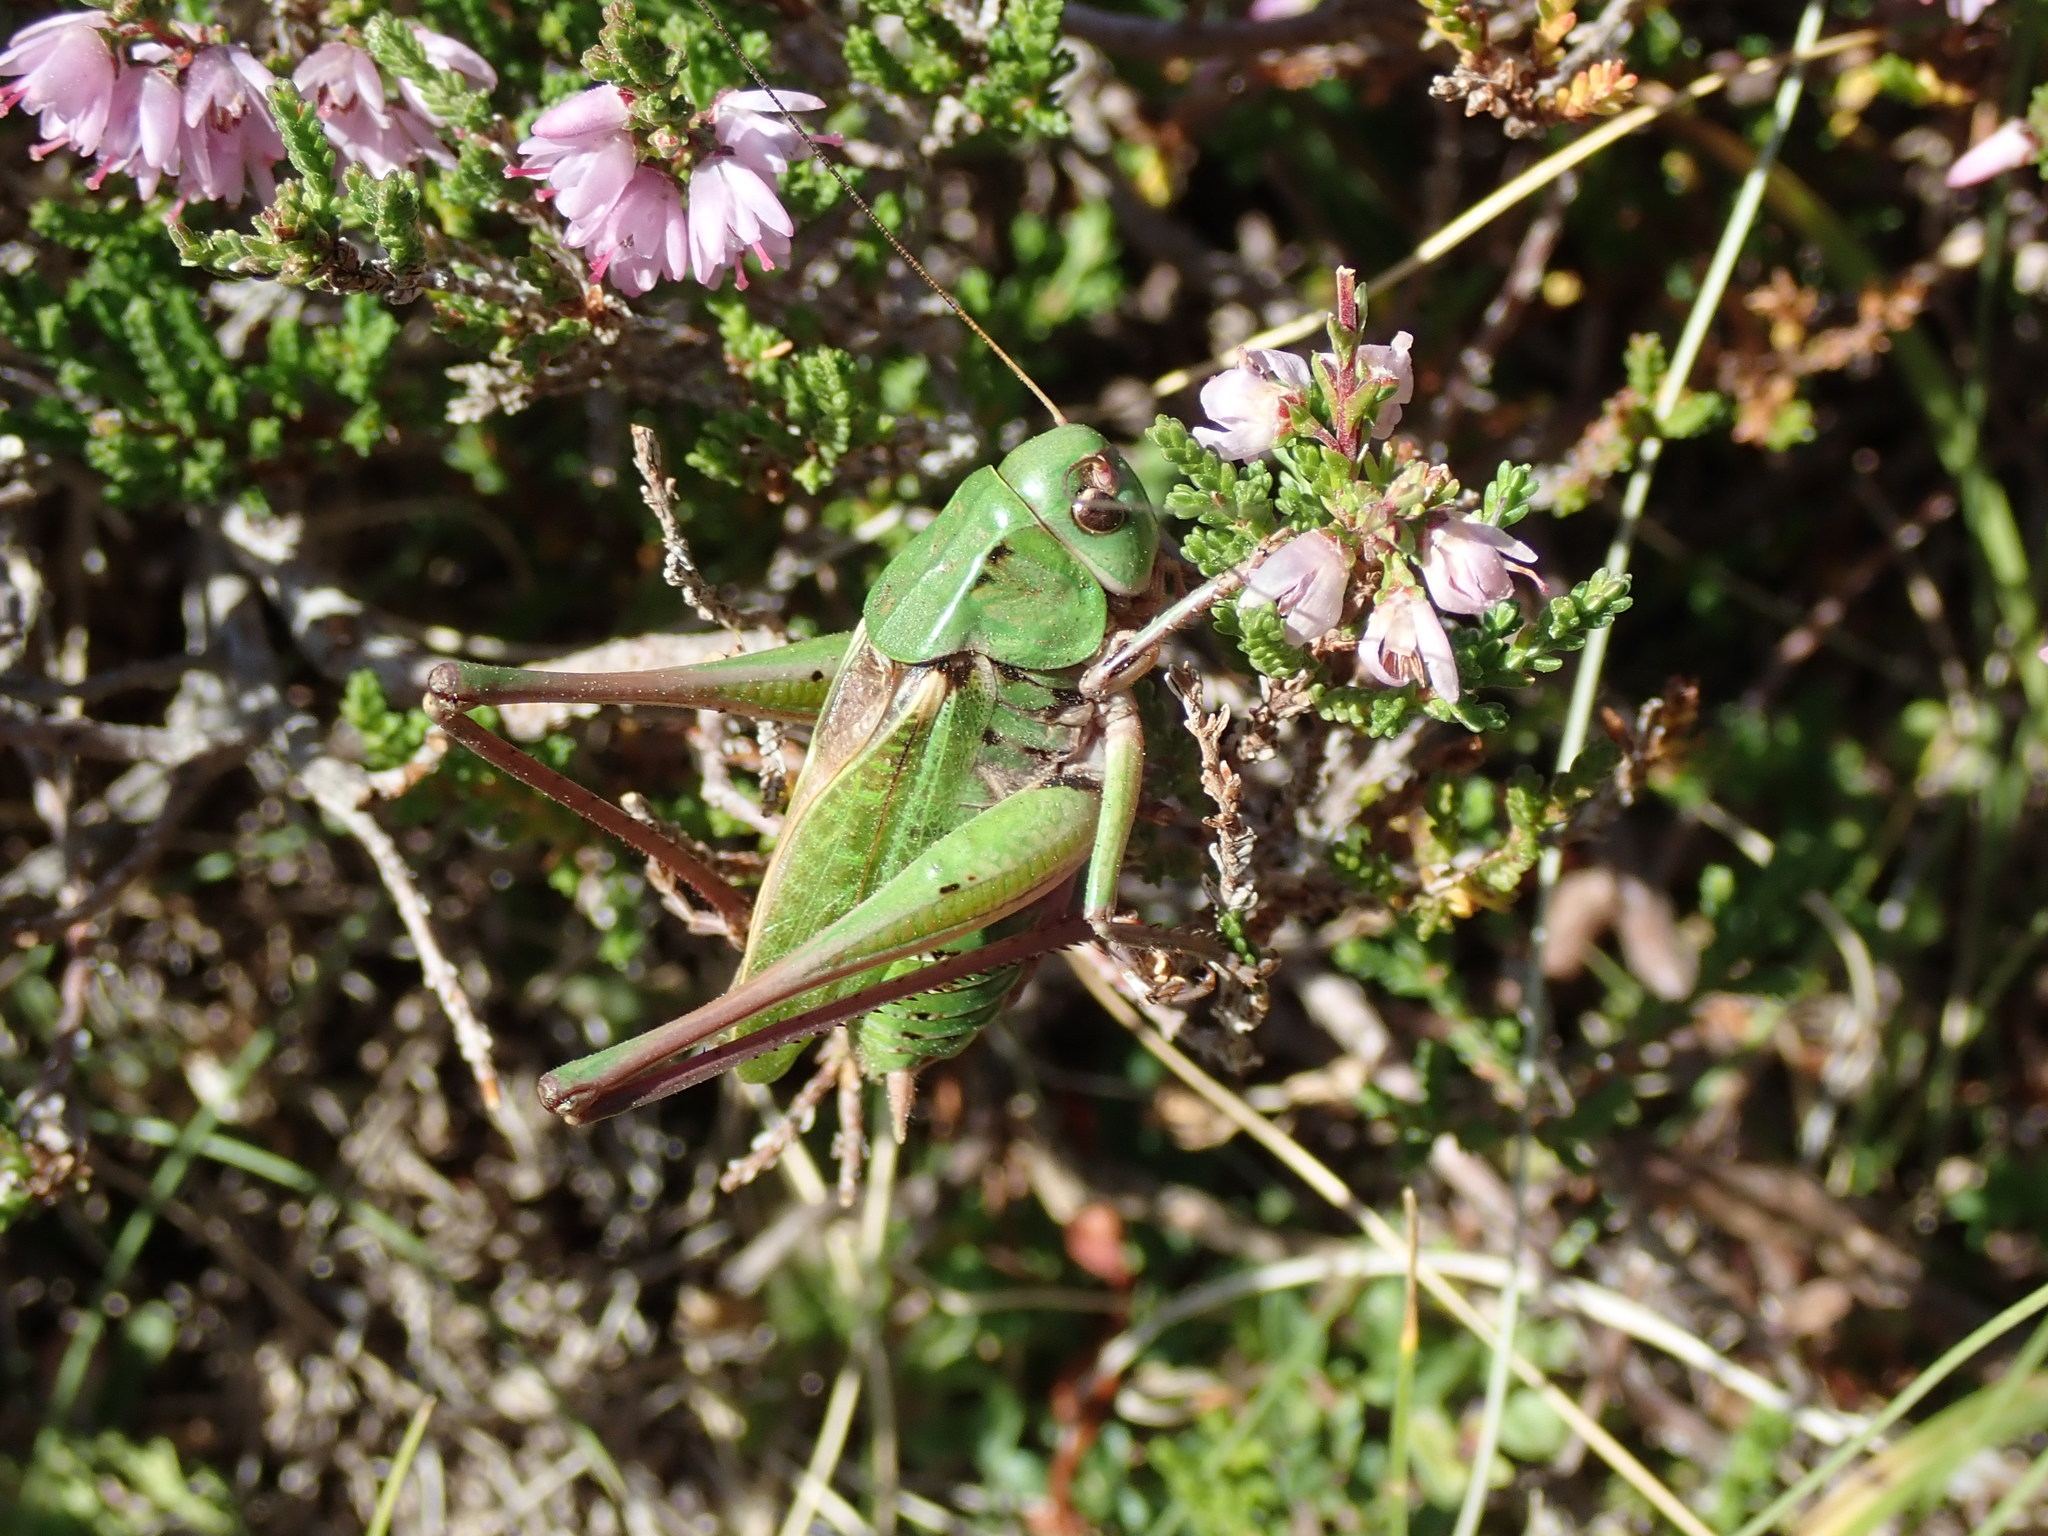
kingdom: Animalia
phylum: Arthropoda
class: Insecta
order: Orthoptera
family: Tettigoniidae
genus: Decticus
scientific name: Decticus verrucivorus
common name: Wart-biter
